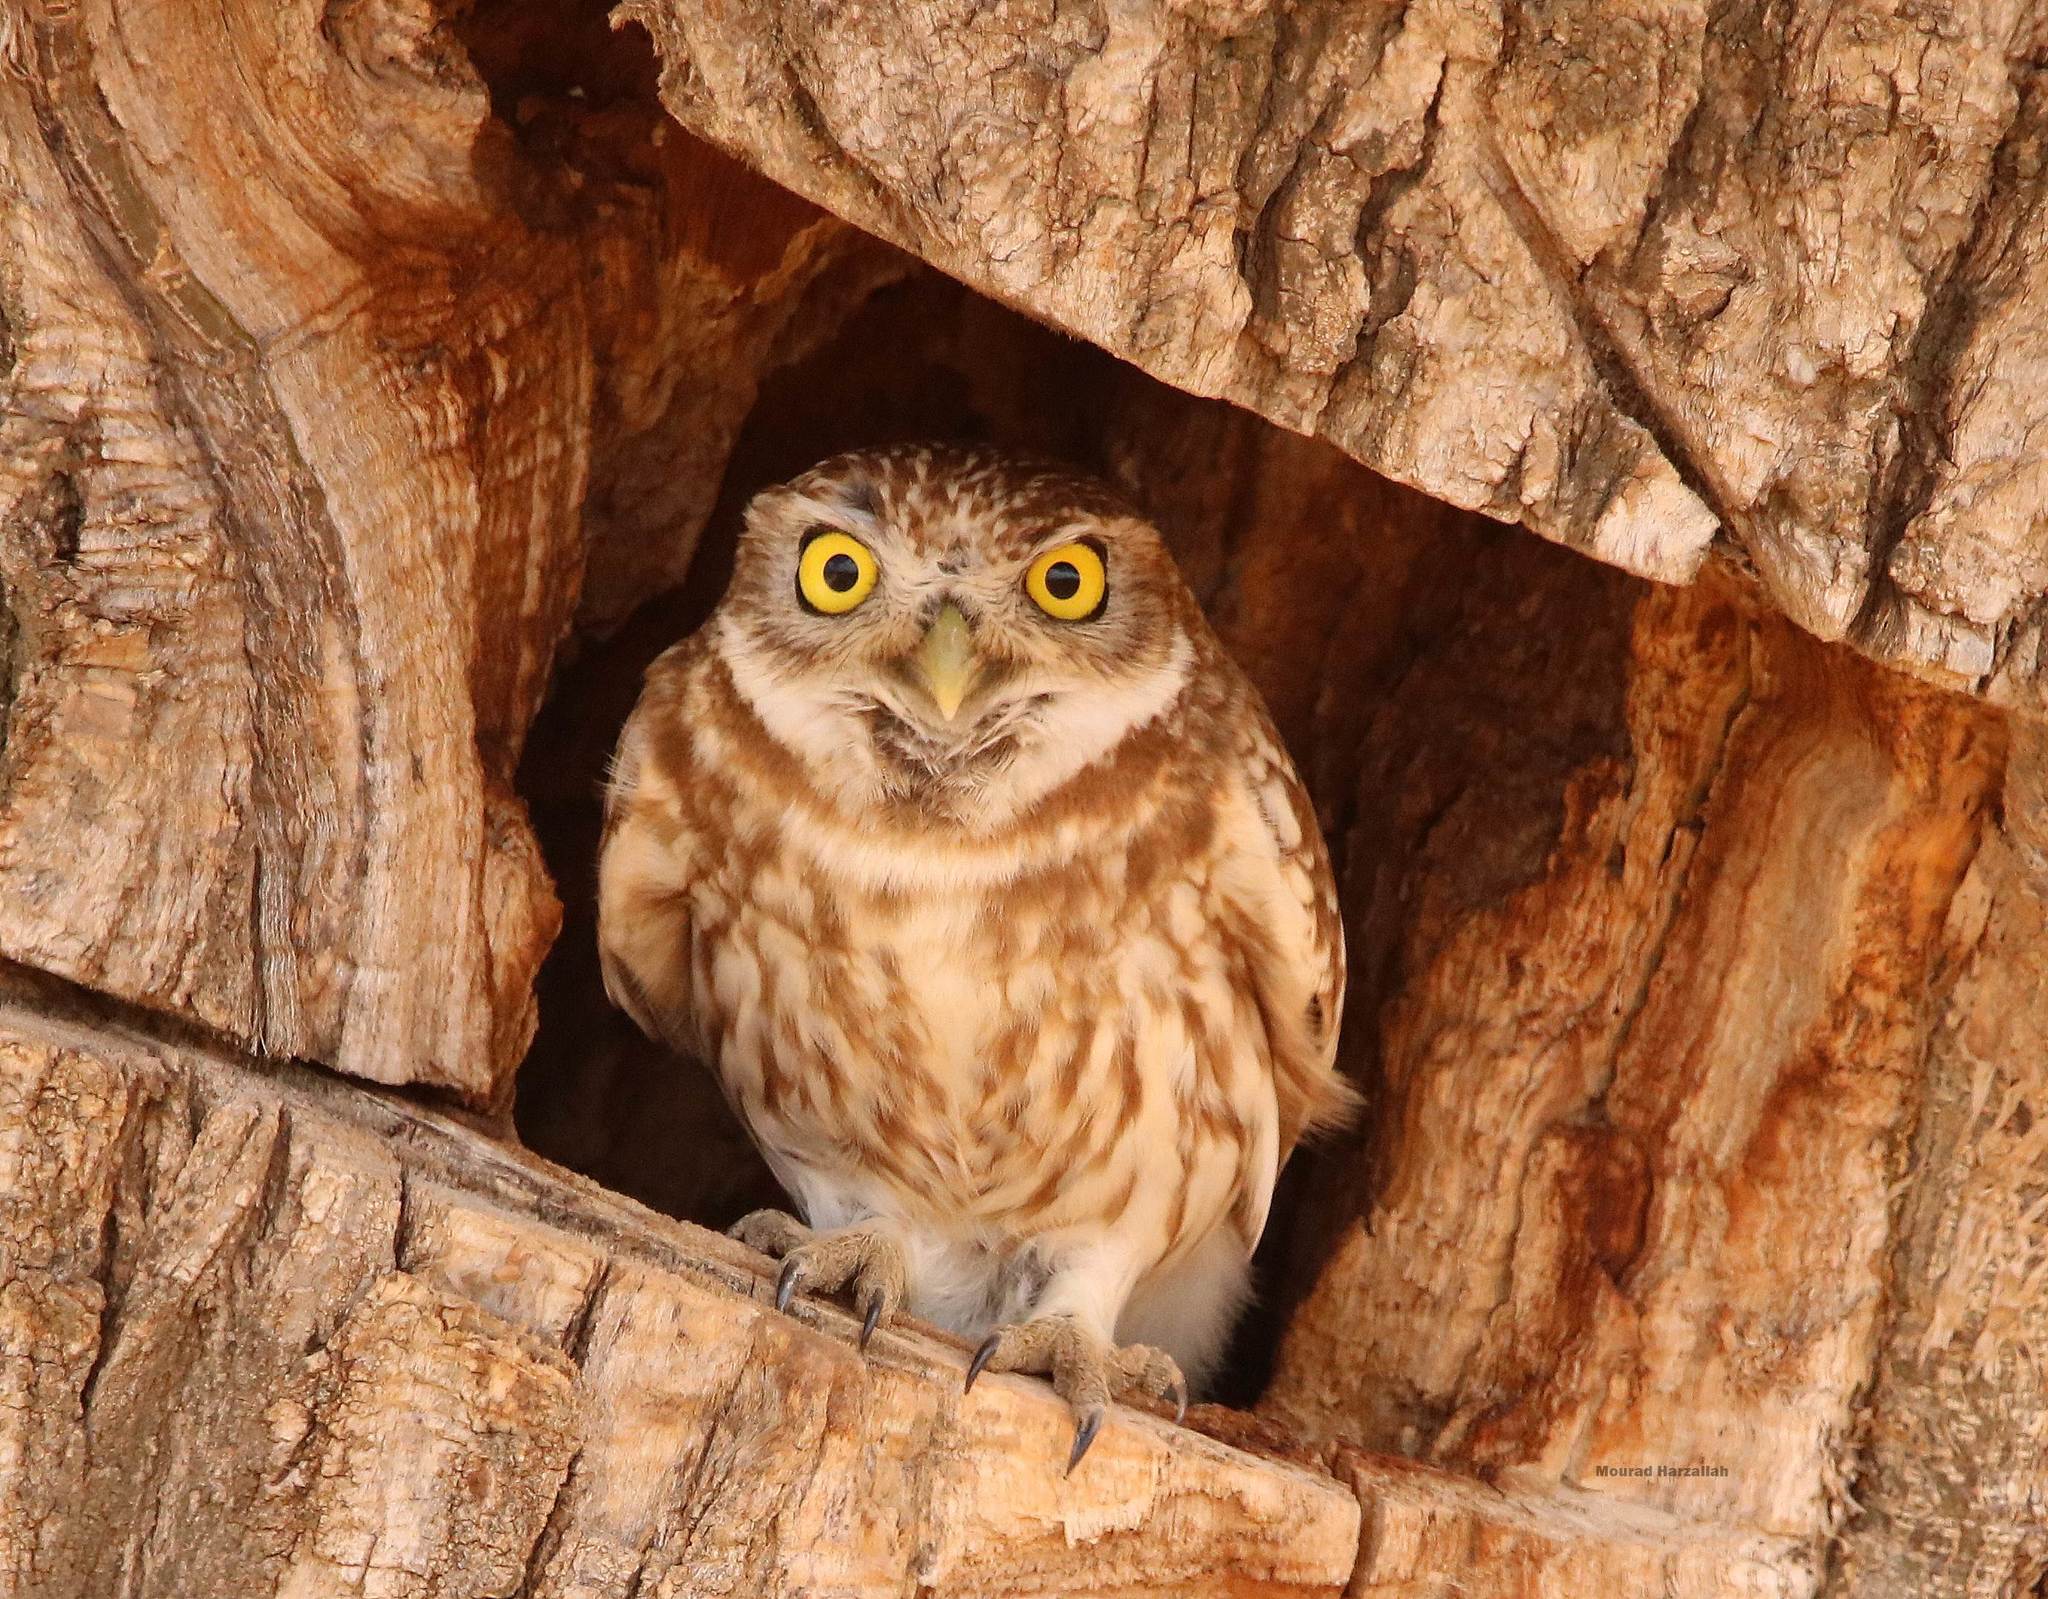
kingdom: Animalia
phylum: Chordata
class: Aves
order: Strigiformes
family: Strigidae
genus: Athene
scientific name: Athene noctua
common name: Little owl
